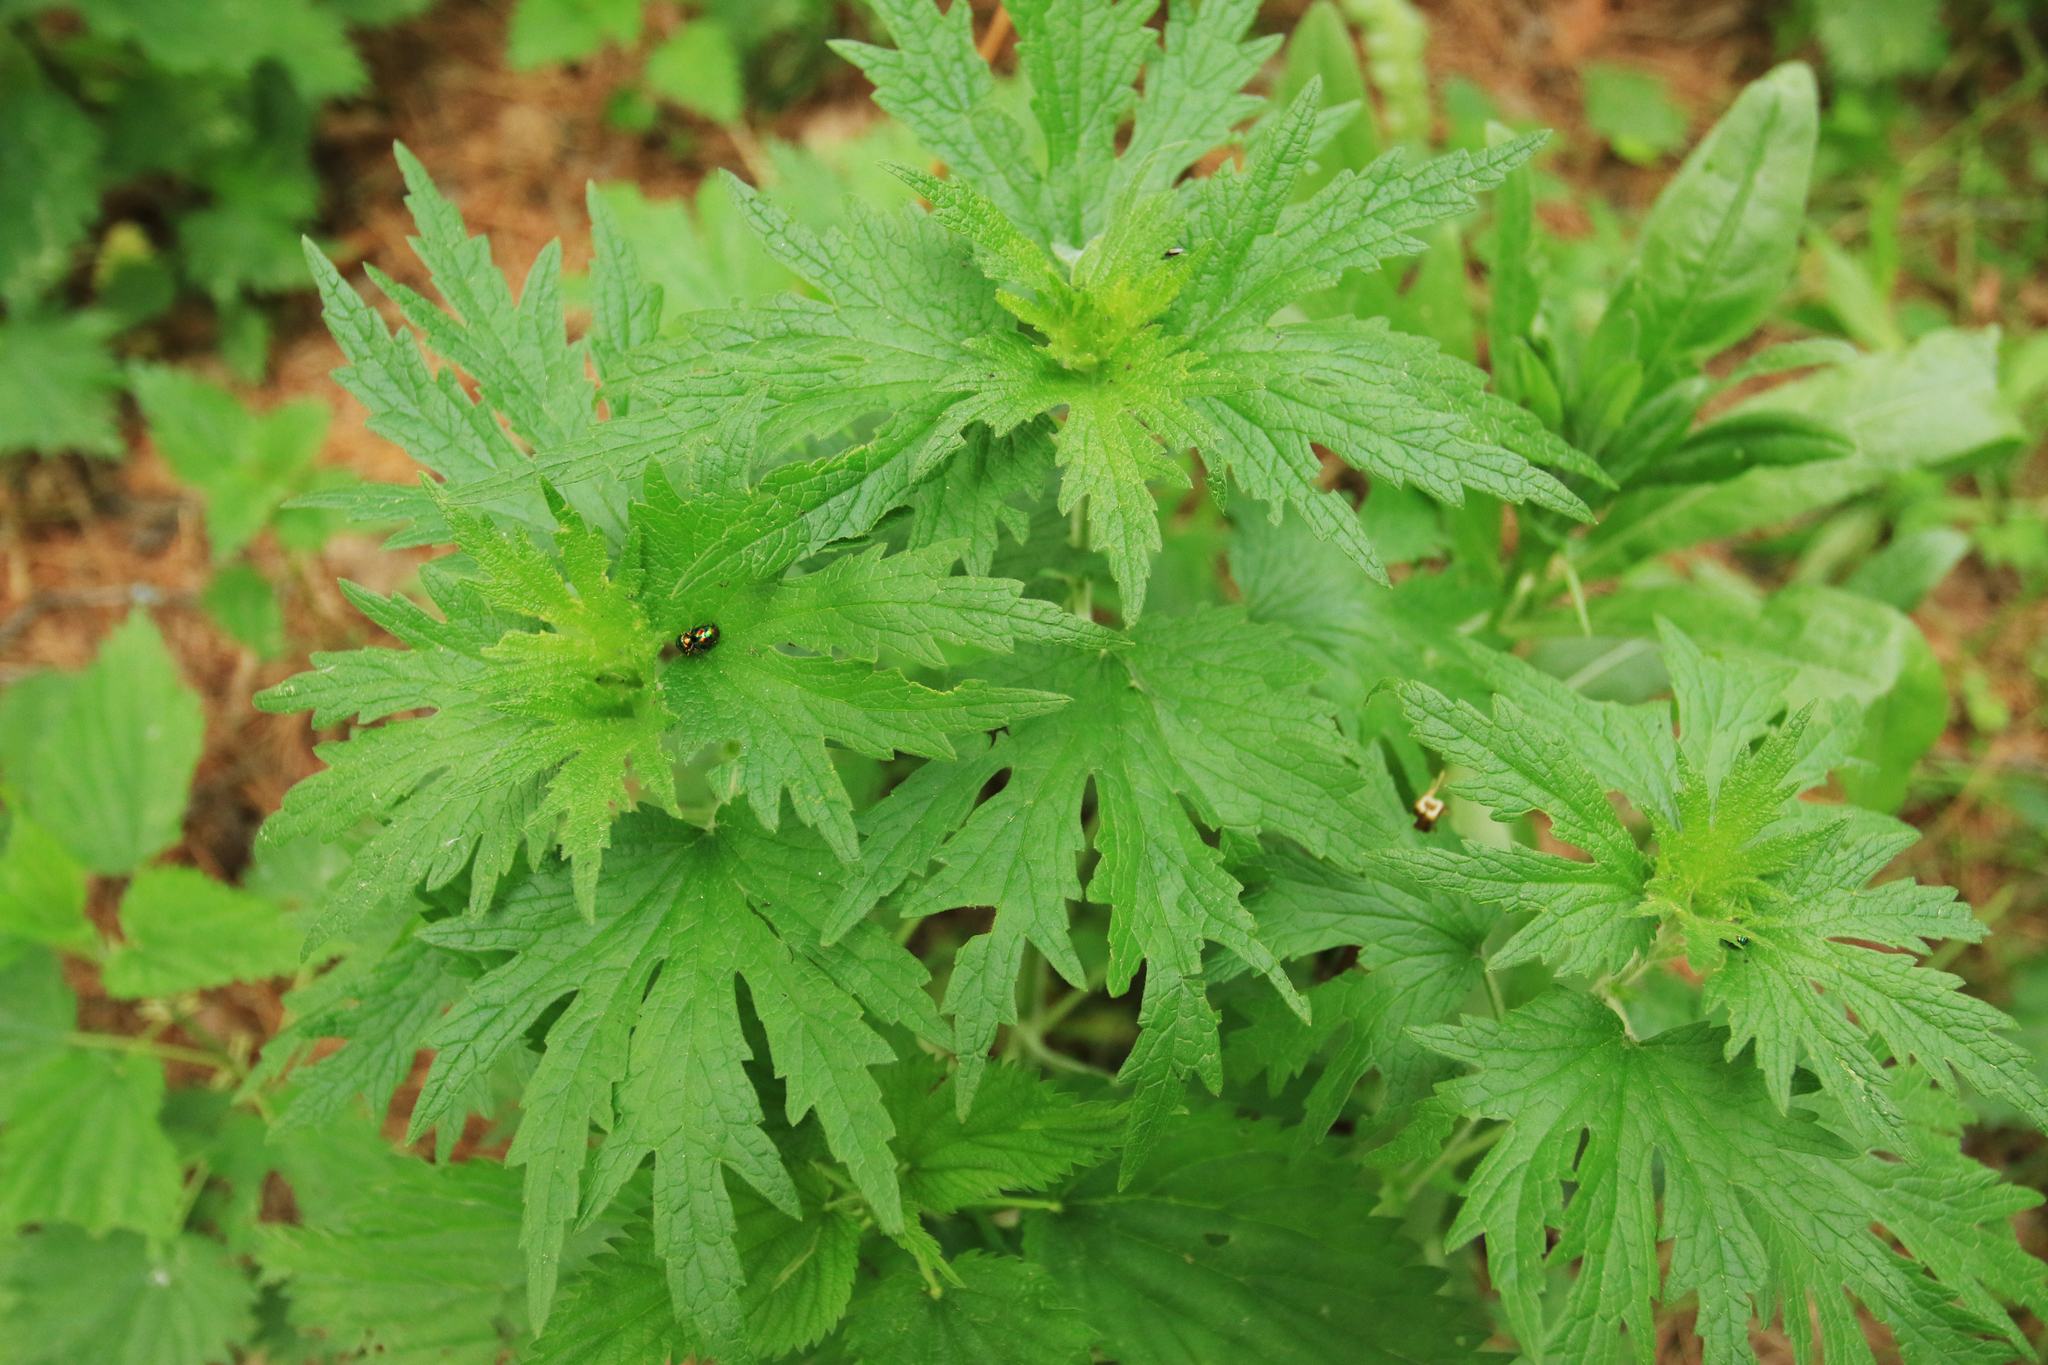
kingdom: Plantae
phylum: Tracheophyta
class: Magnoliopsida
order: Lamiales
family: Lamiaceae
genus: Leonurus
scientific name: Leonurus quinquelobatus
